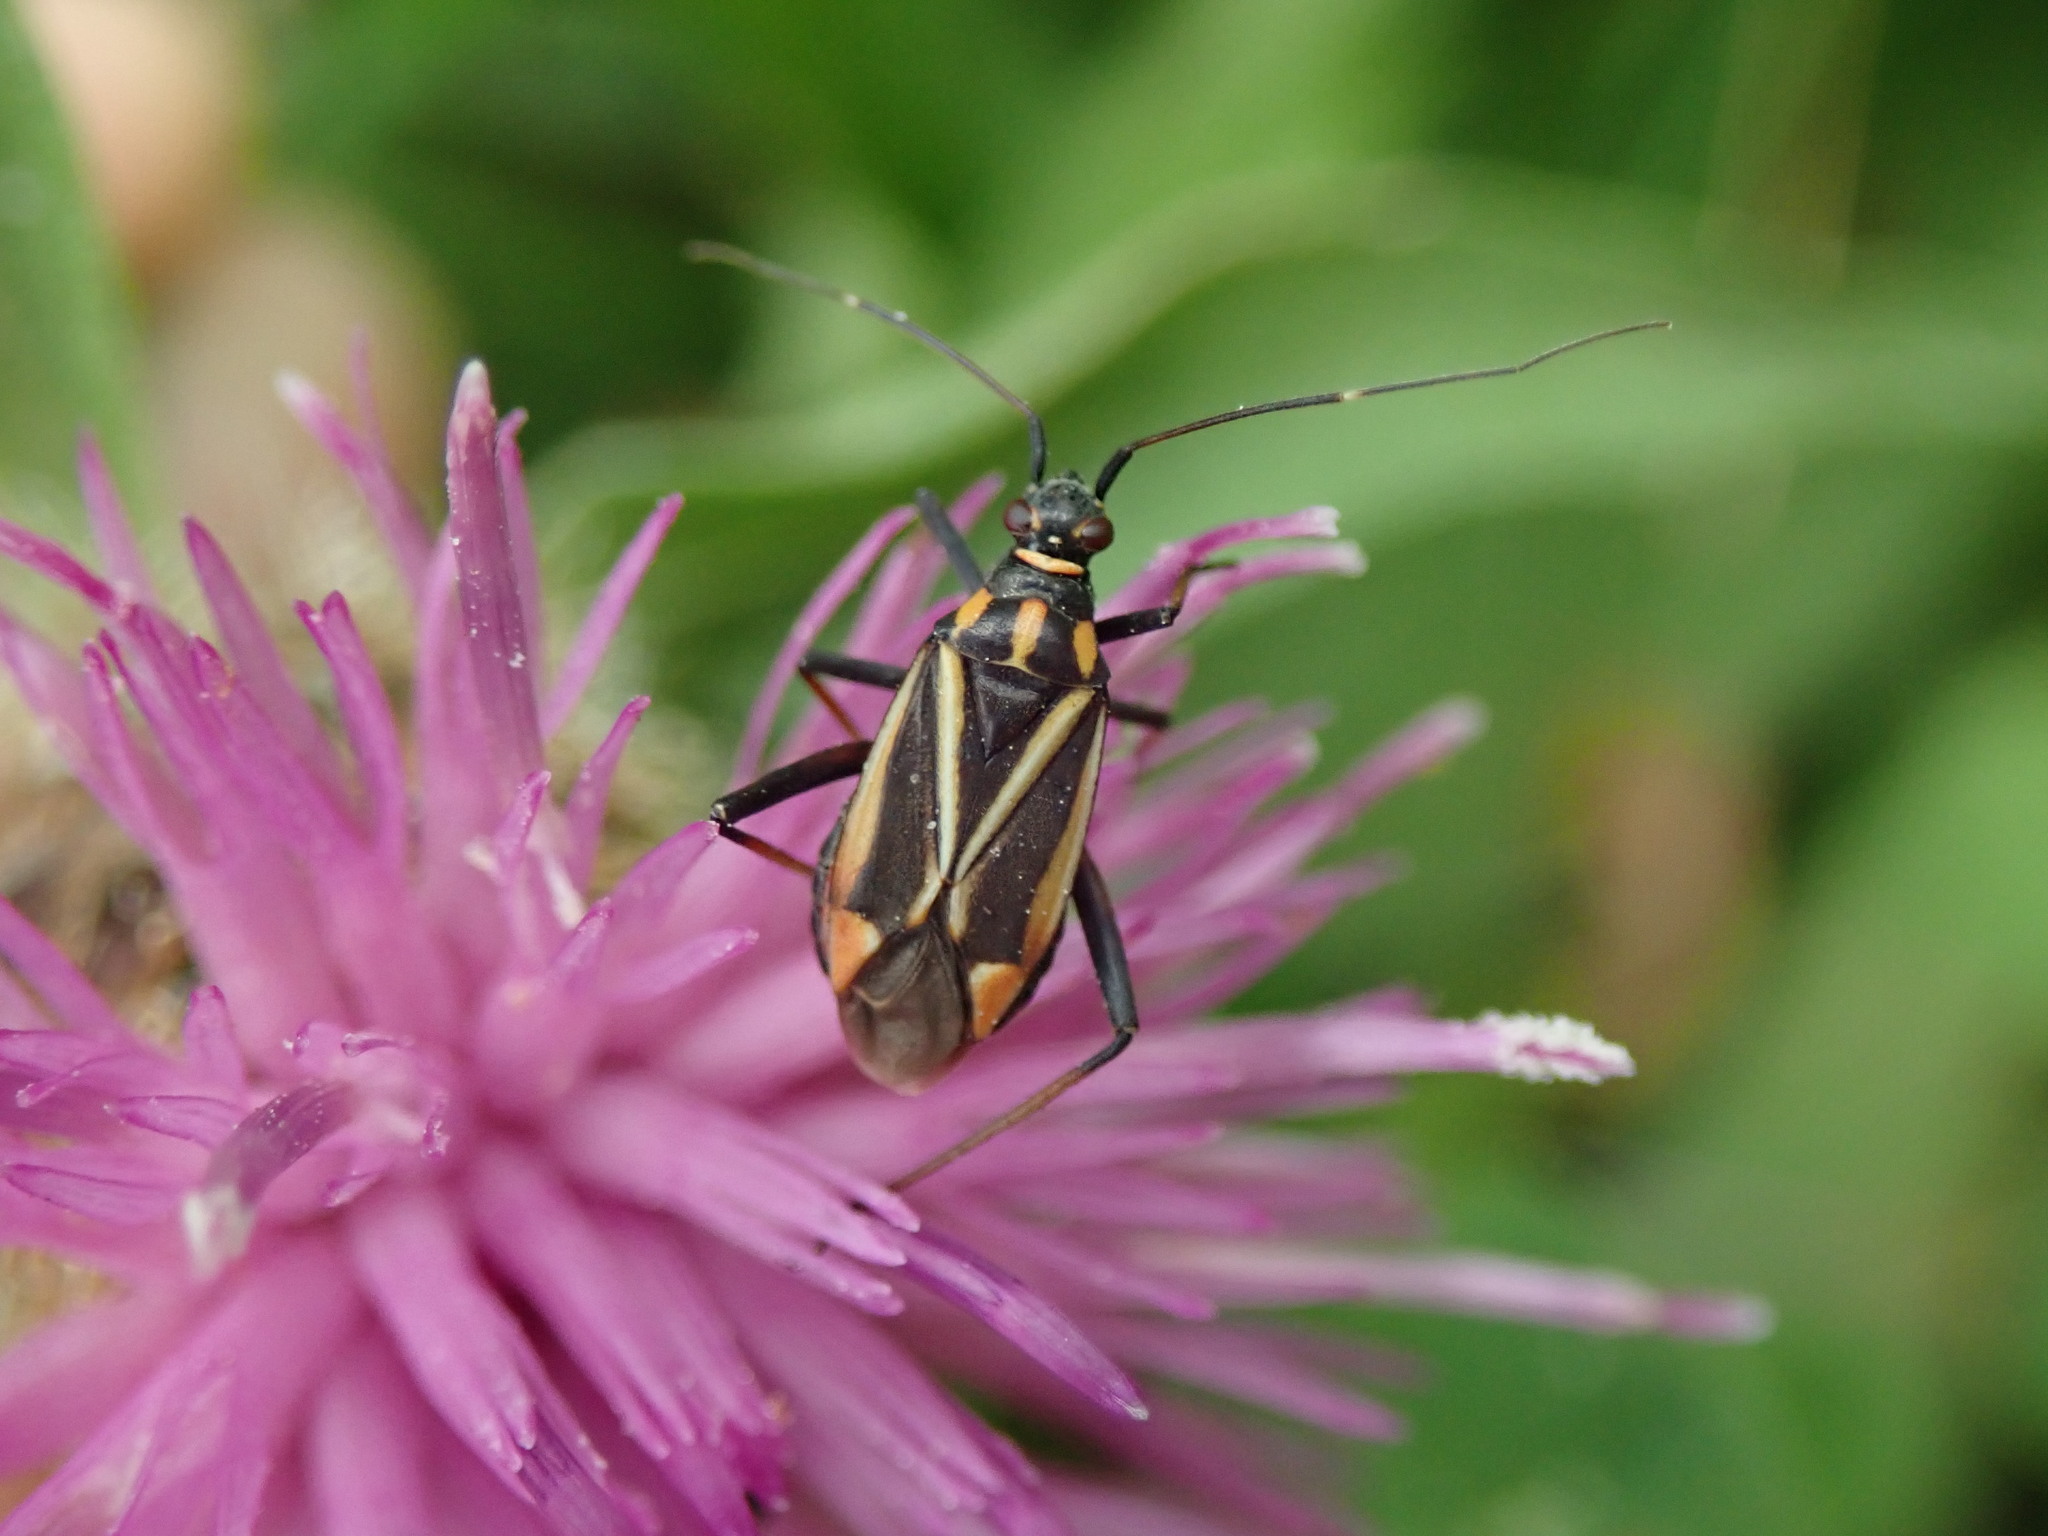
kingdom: Animalia
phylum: Arthropoda
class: Insecta
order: Hemiptera
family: Miridae
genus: Hadrodemus
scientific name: Hadrodemus m-flavum
